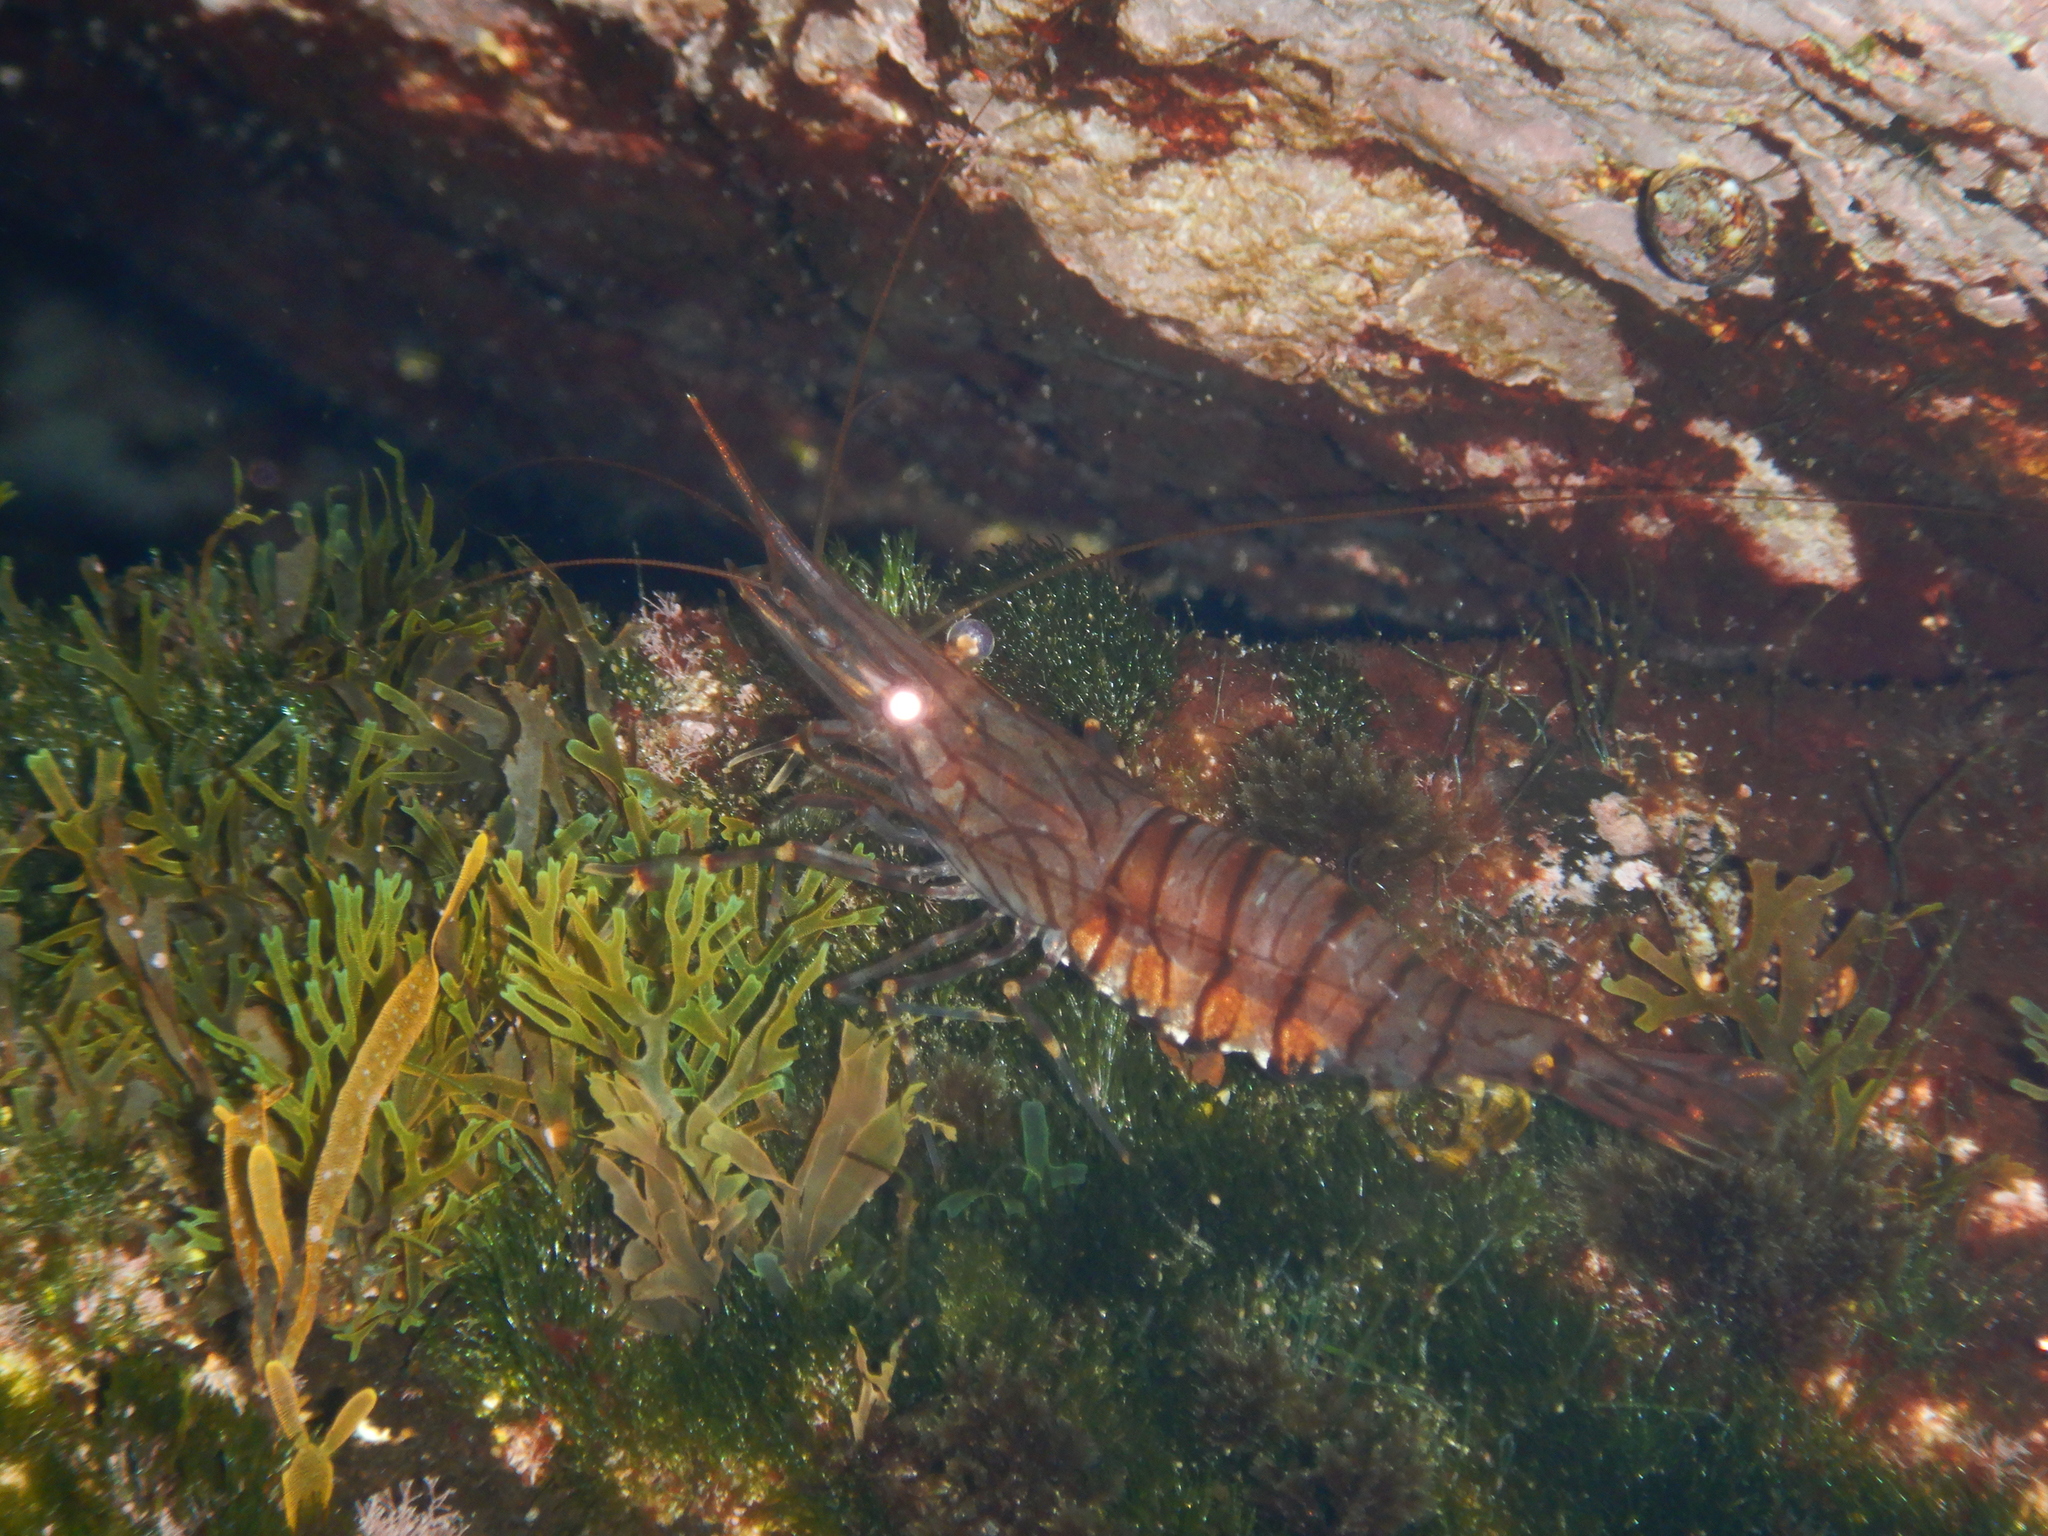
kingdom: Animalia
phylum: Arthropoda
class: Malacostraca
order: Decapoda
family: Palaemonidae
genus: Palaemon
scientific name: Palaemon serratus
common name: Common prawn
